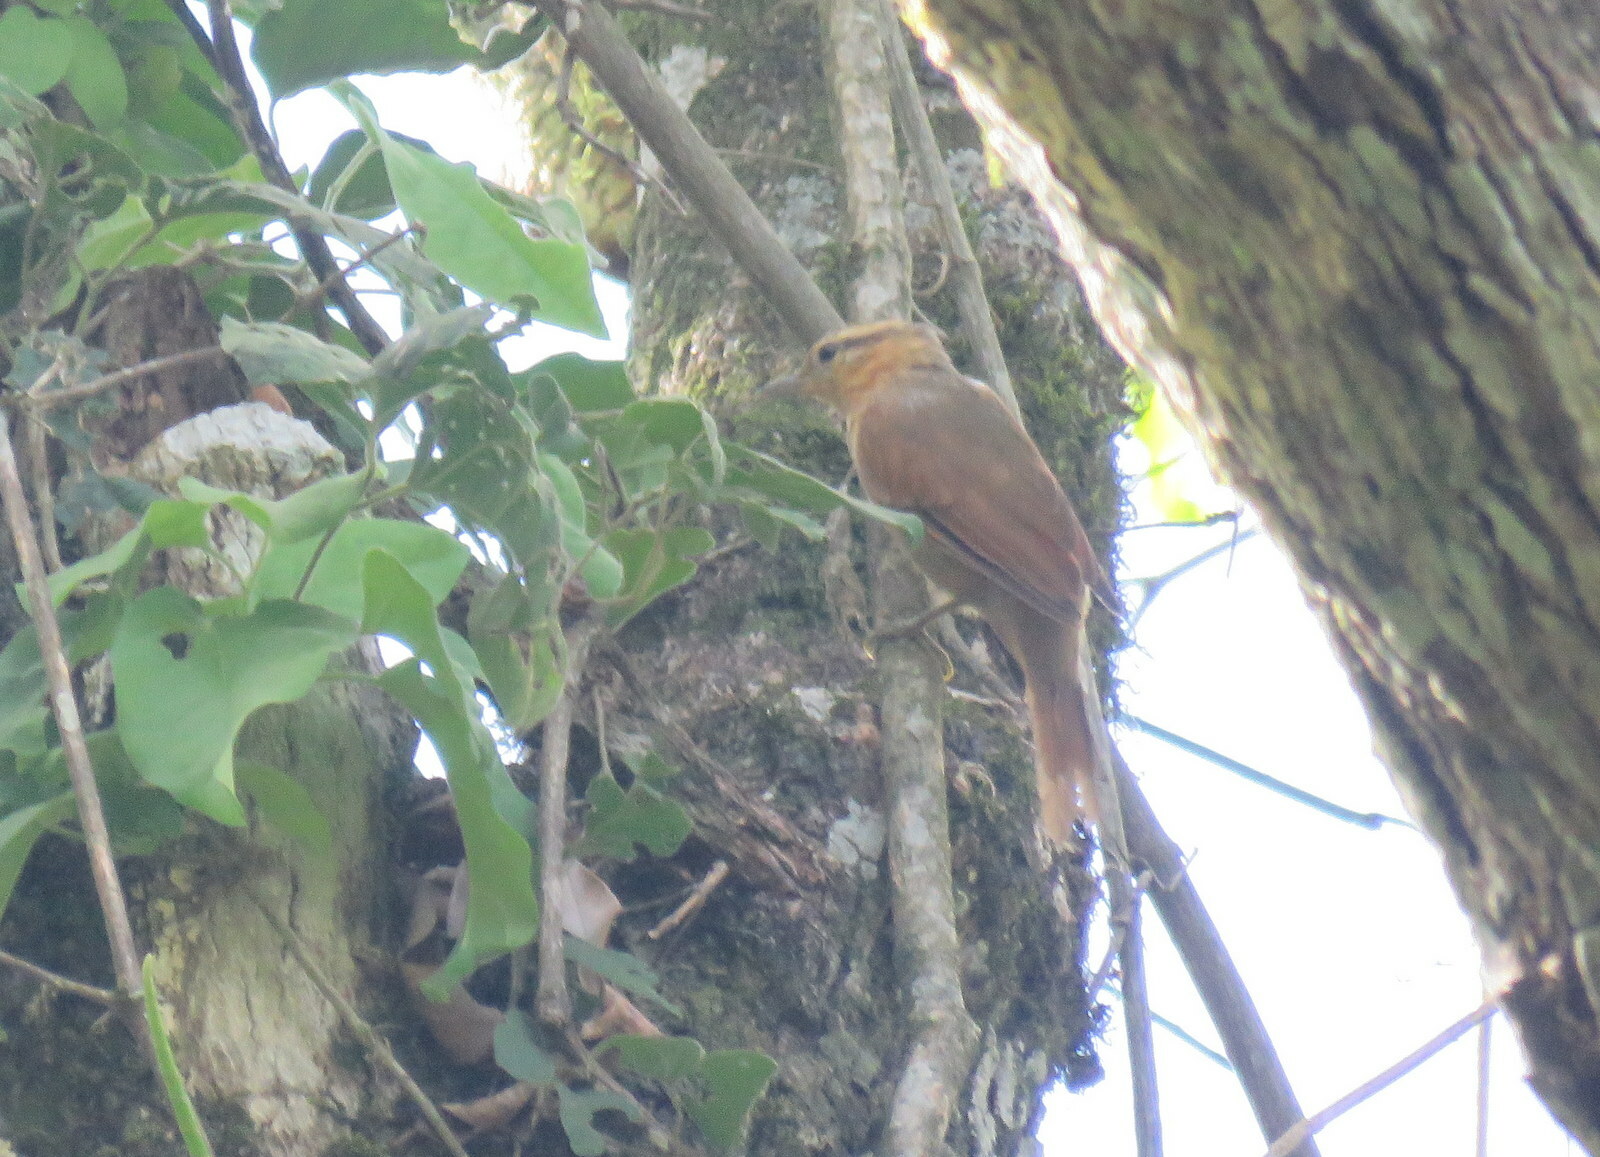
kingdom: Animalia
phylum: Chordata
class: Aves
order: Passeriformes
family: Furnariidae
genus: Philydor
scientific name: Philydor rufum
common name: Buff-fronted foliage-gleaner
